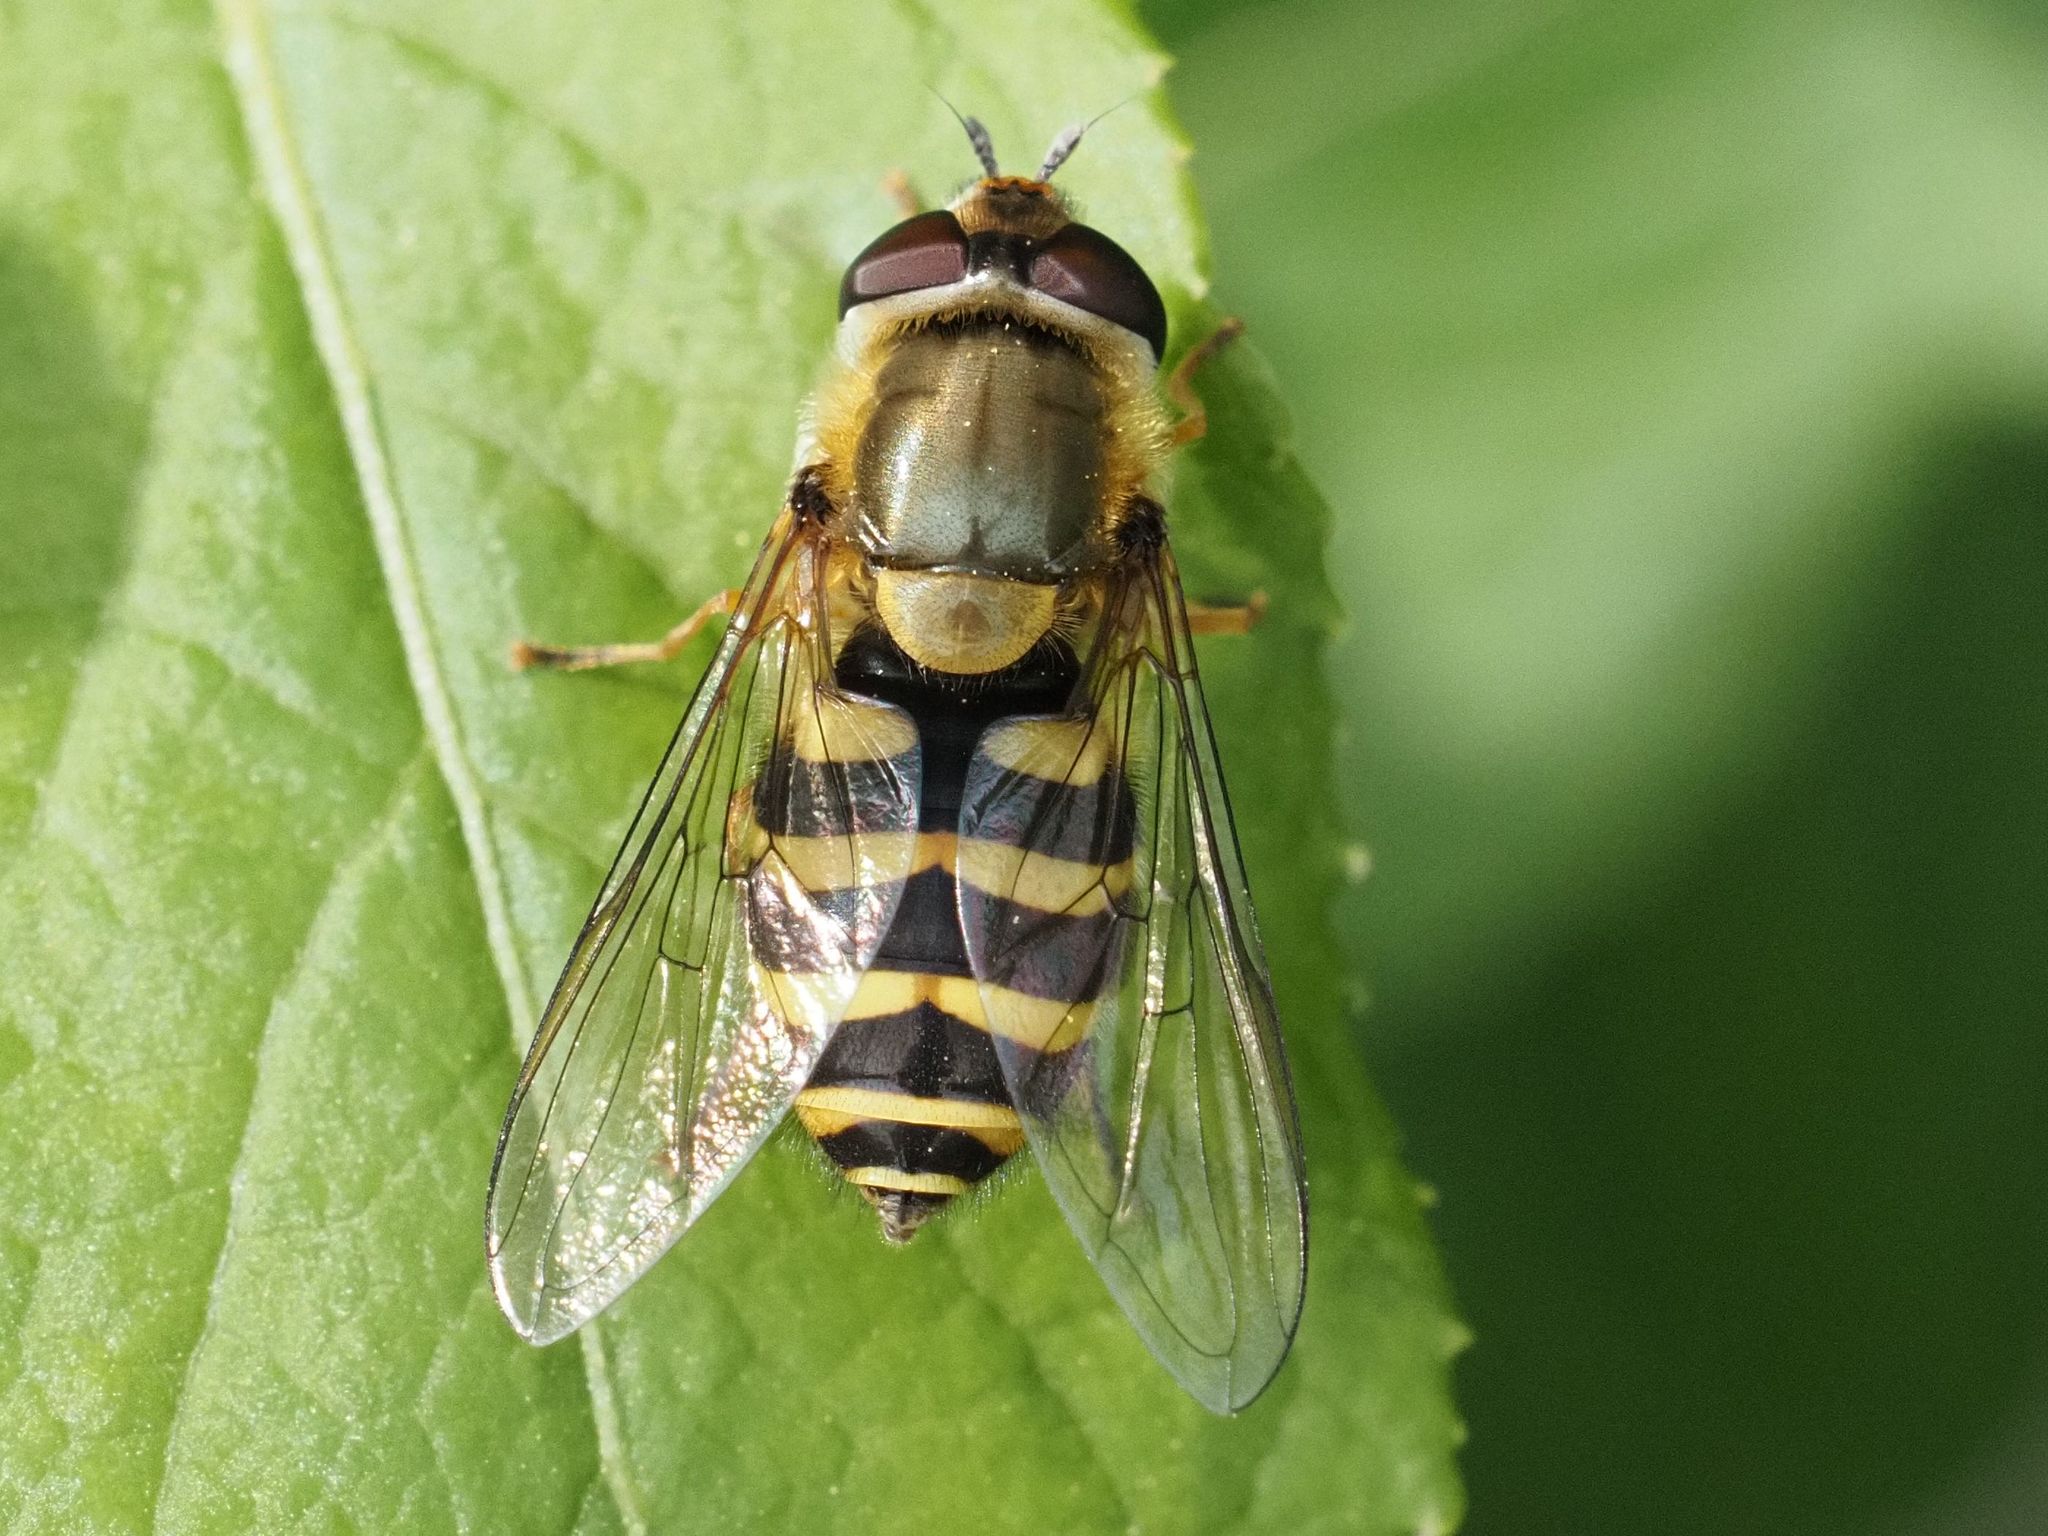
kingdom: Animalia
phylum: Arthropoda
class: Insecta
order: Diptera
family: Syrphidae
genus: Syrphus
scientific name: Syrphus
